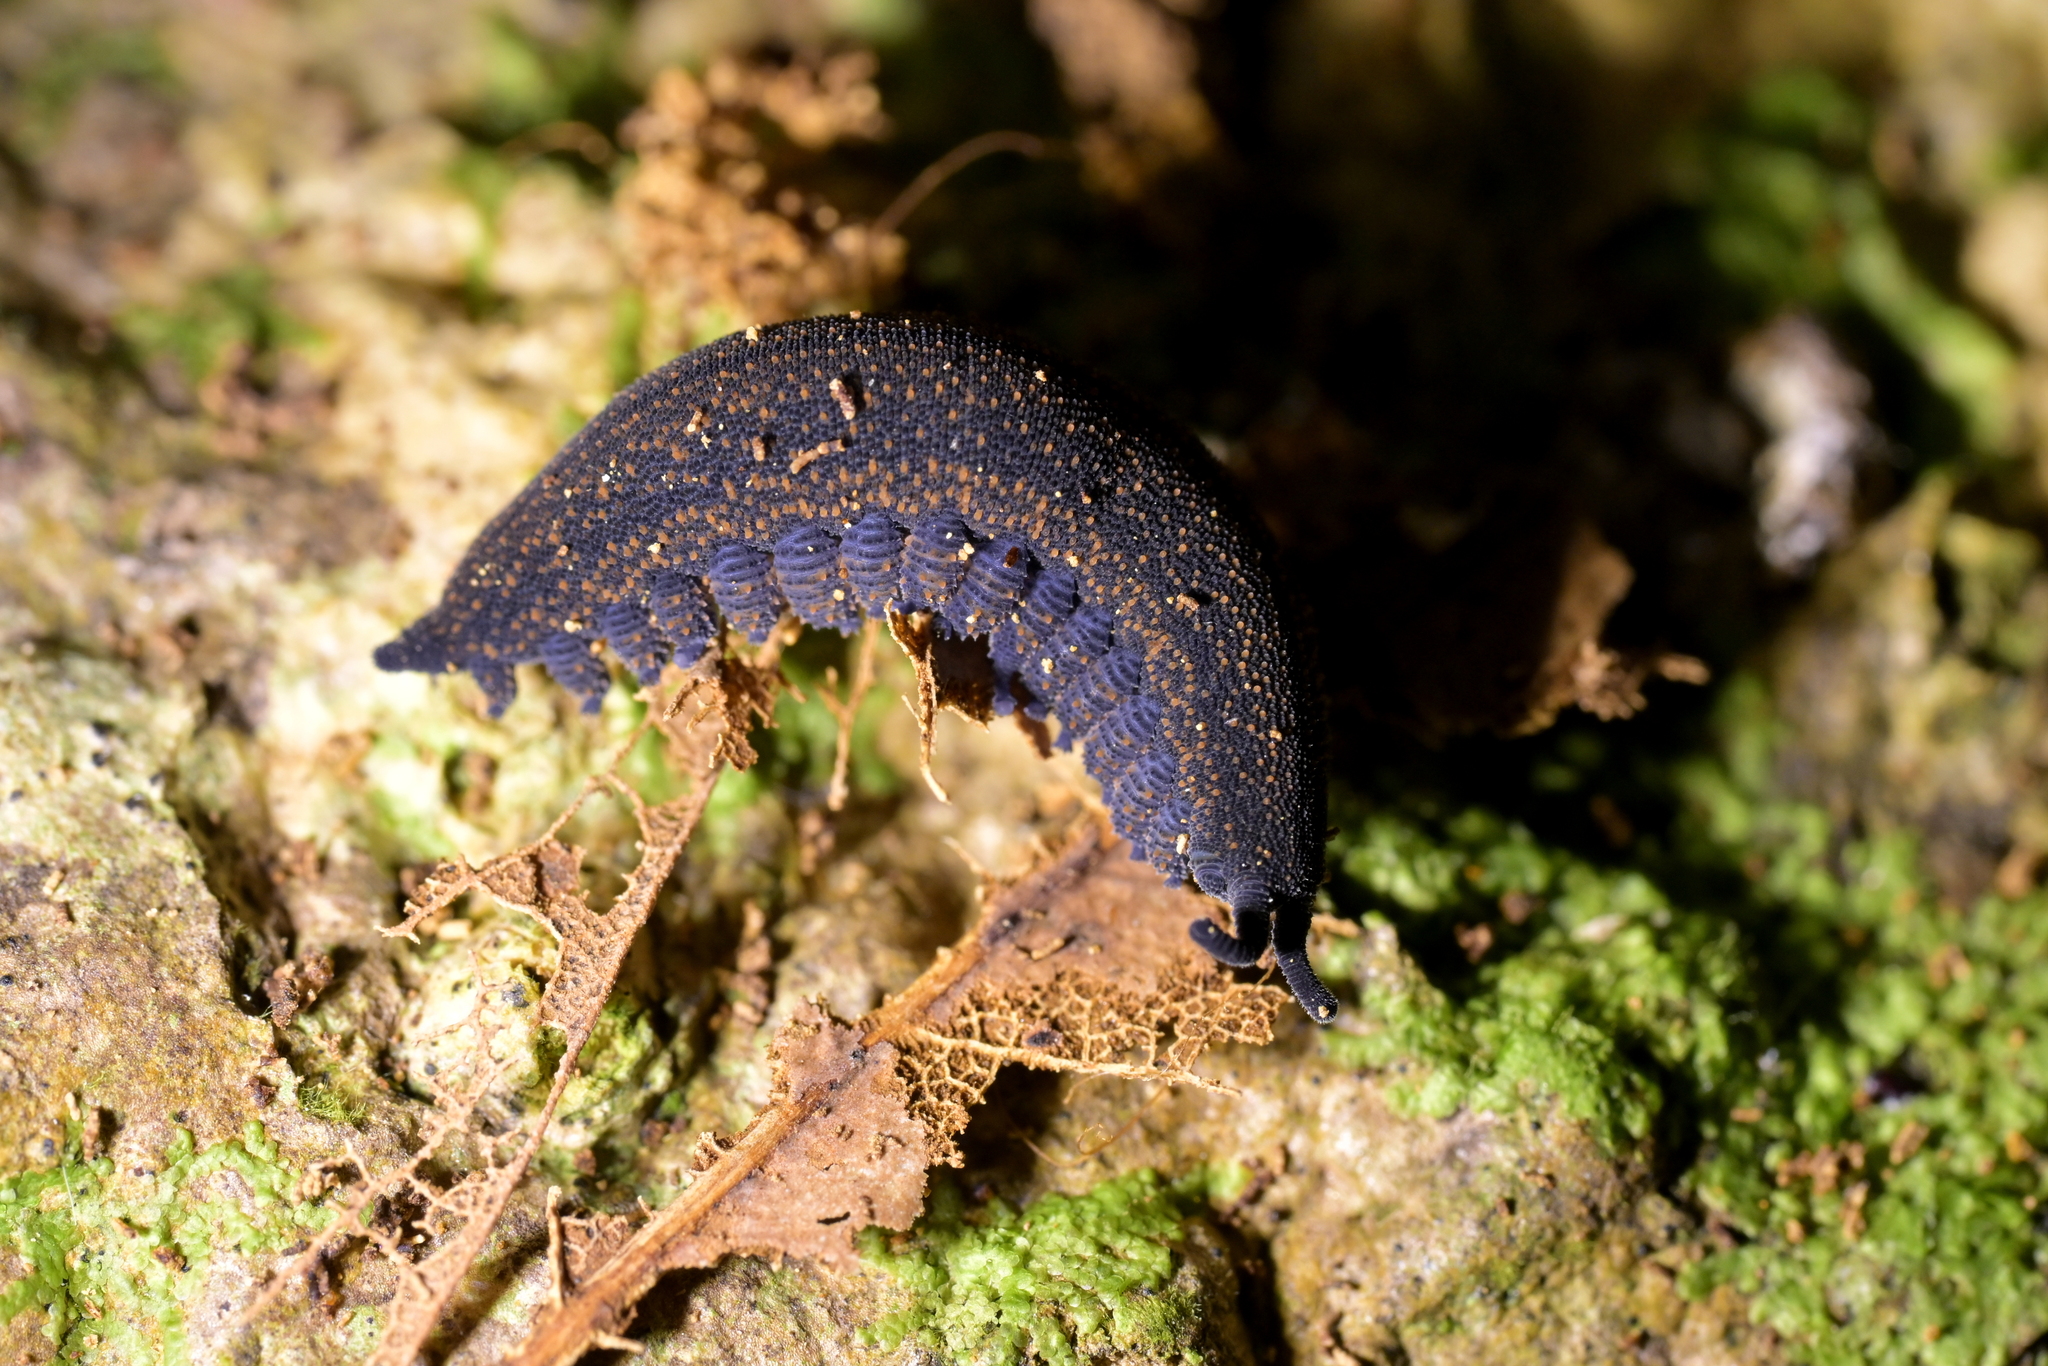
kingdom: Animalia
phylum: Onychophora
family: Peripatopsidae
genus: Peripatoides
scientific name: Peripatoides novaezealandiae
